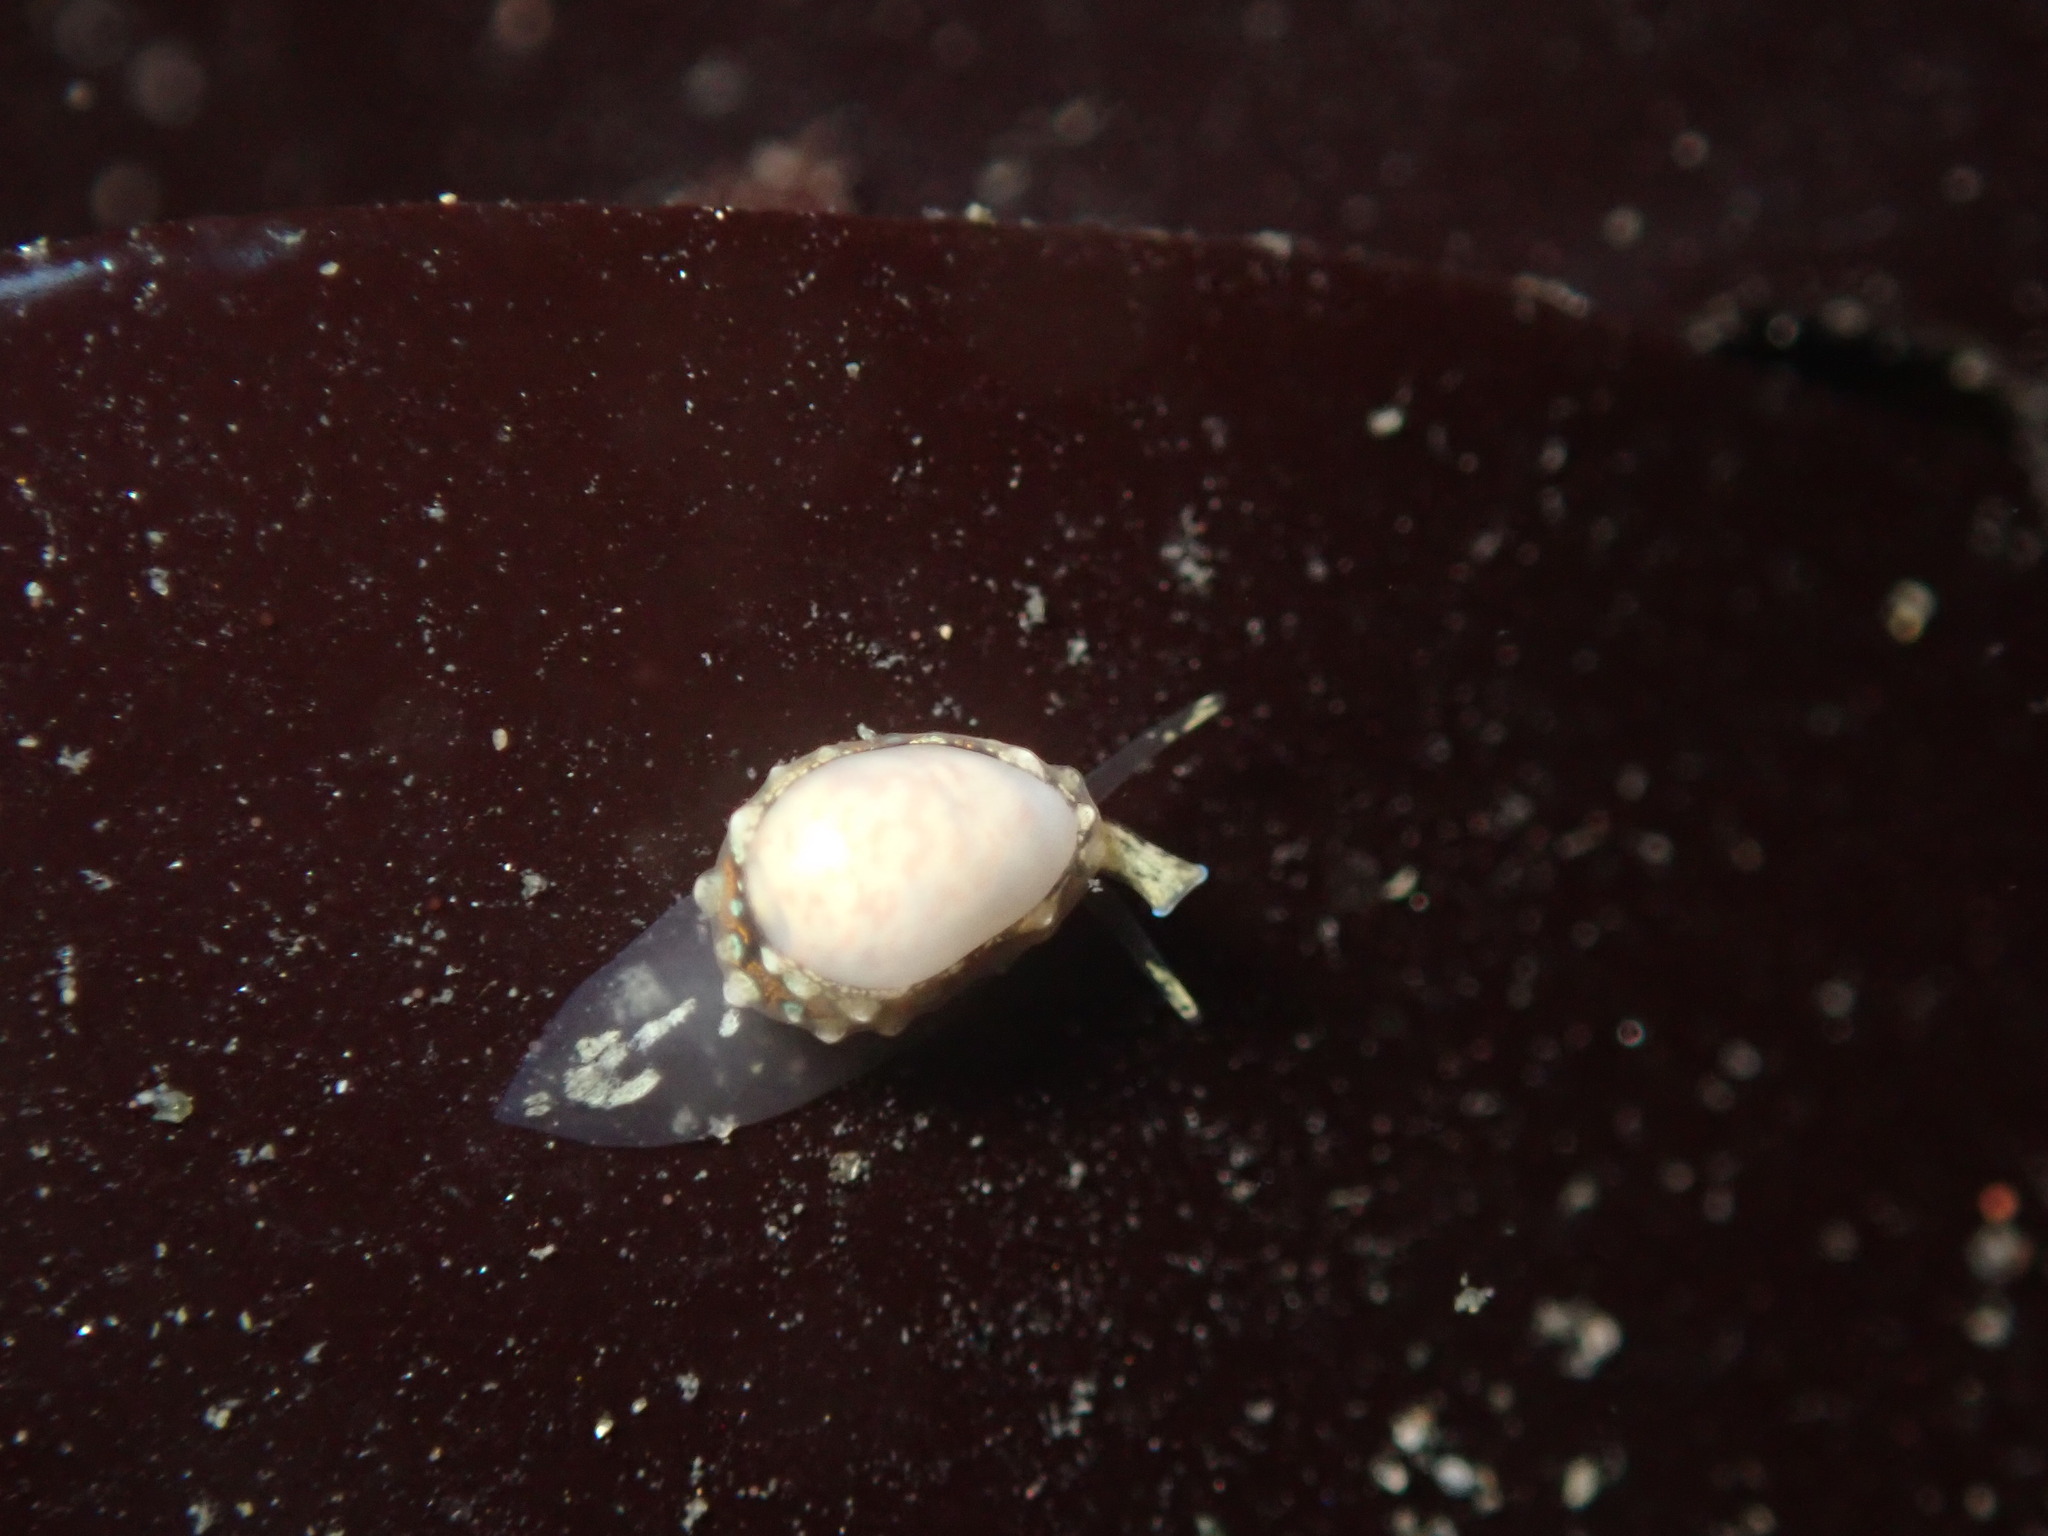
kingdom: Animalia
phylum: Mollusca
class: Gastropoda
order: Neogastropoda
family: Granulinidae
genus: Granulina
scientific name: Granulina margaritula
